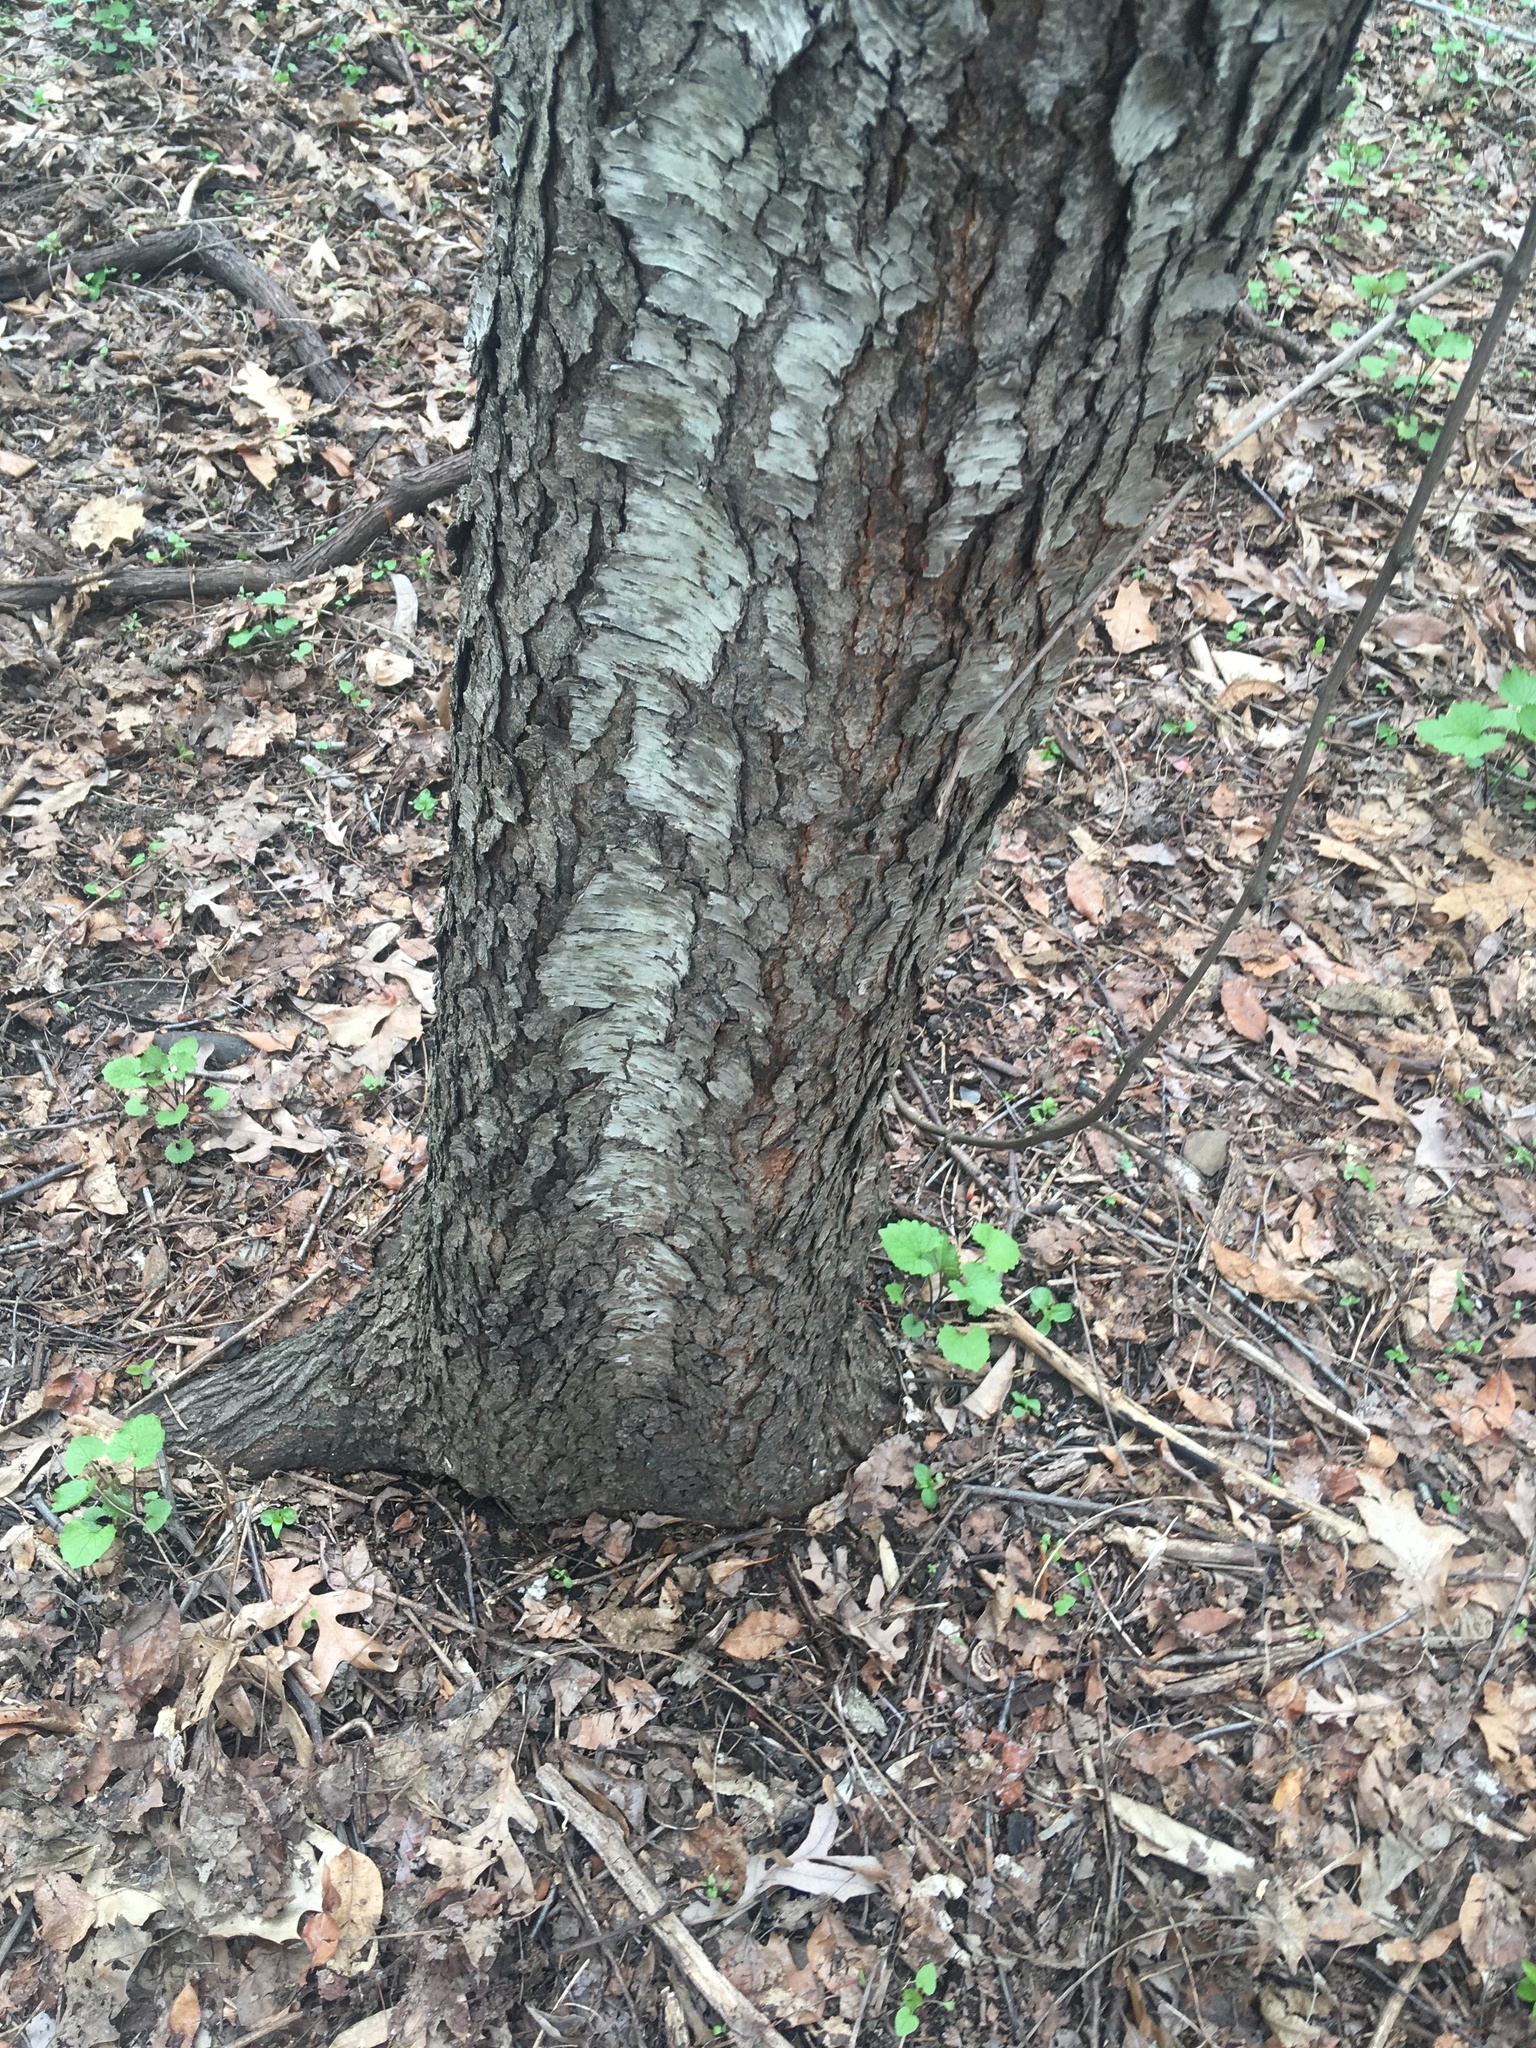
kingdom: Plantae
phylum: Tracheophyta
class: Magnoliopsida
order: Rosales
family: Rosaceae
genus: Prunus
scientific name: Prunus serotina
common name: Black cherry
